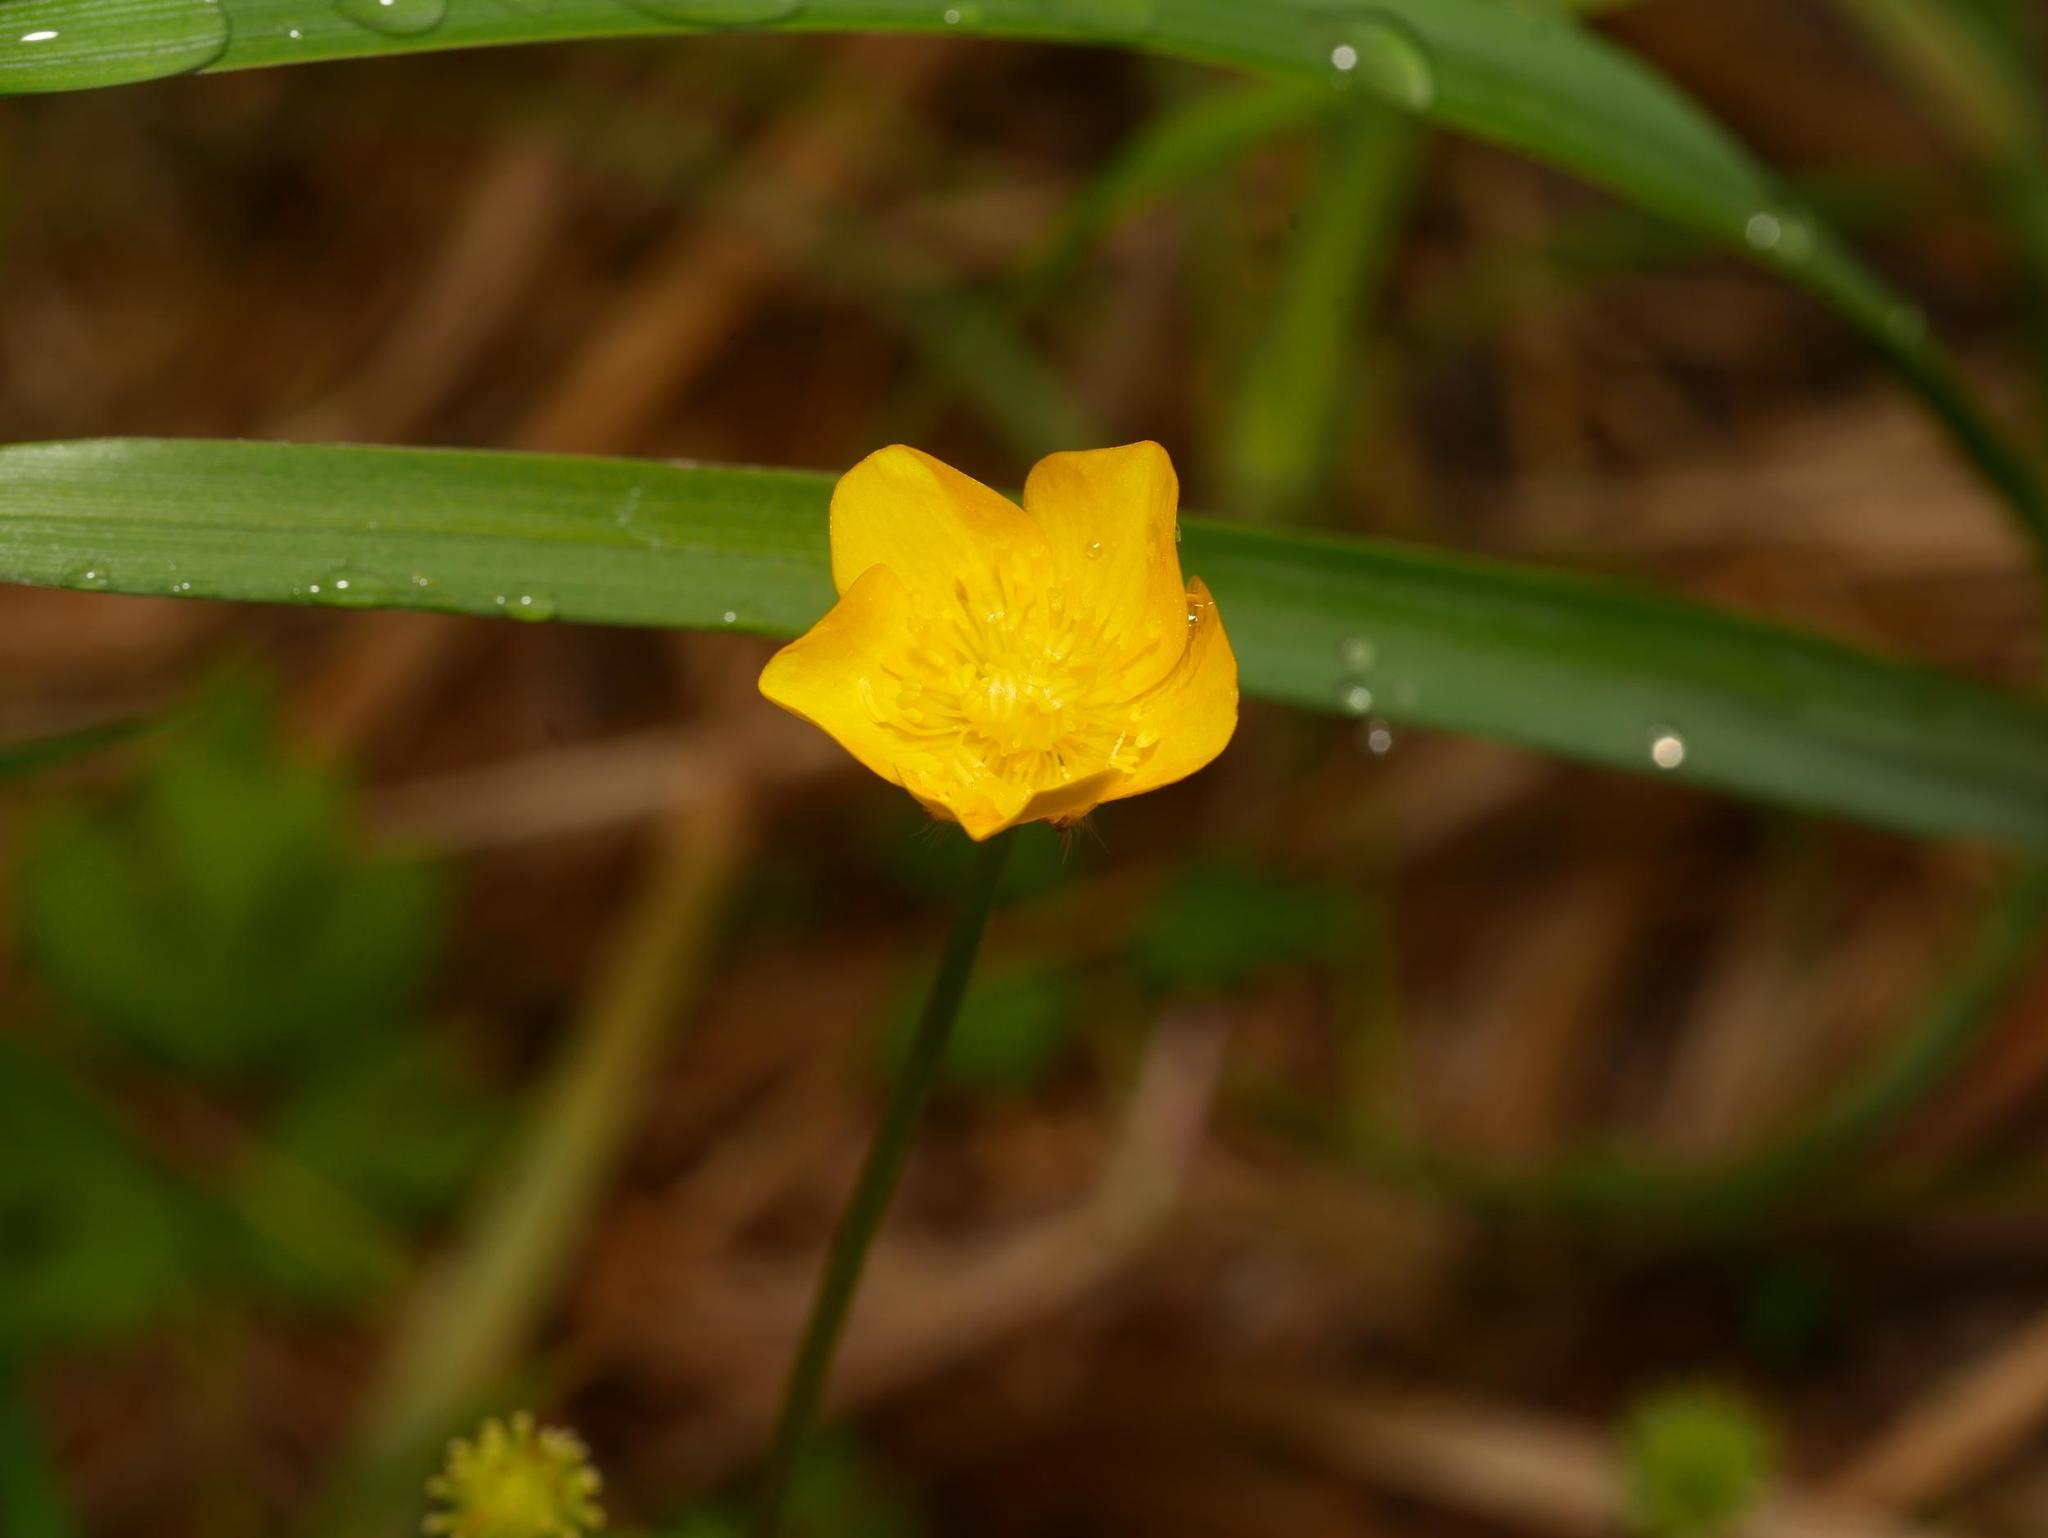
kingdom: Plantae
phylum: Tracheophyta
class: Magnoliopsida
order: Ranunculales
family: Ranunculaceae
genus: Ranunculus
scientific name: Ranunculus repens
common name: Creeping buttercup
